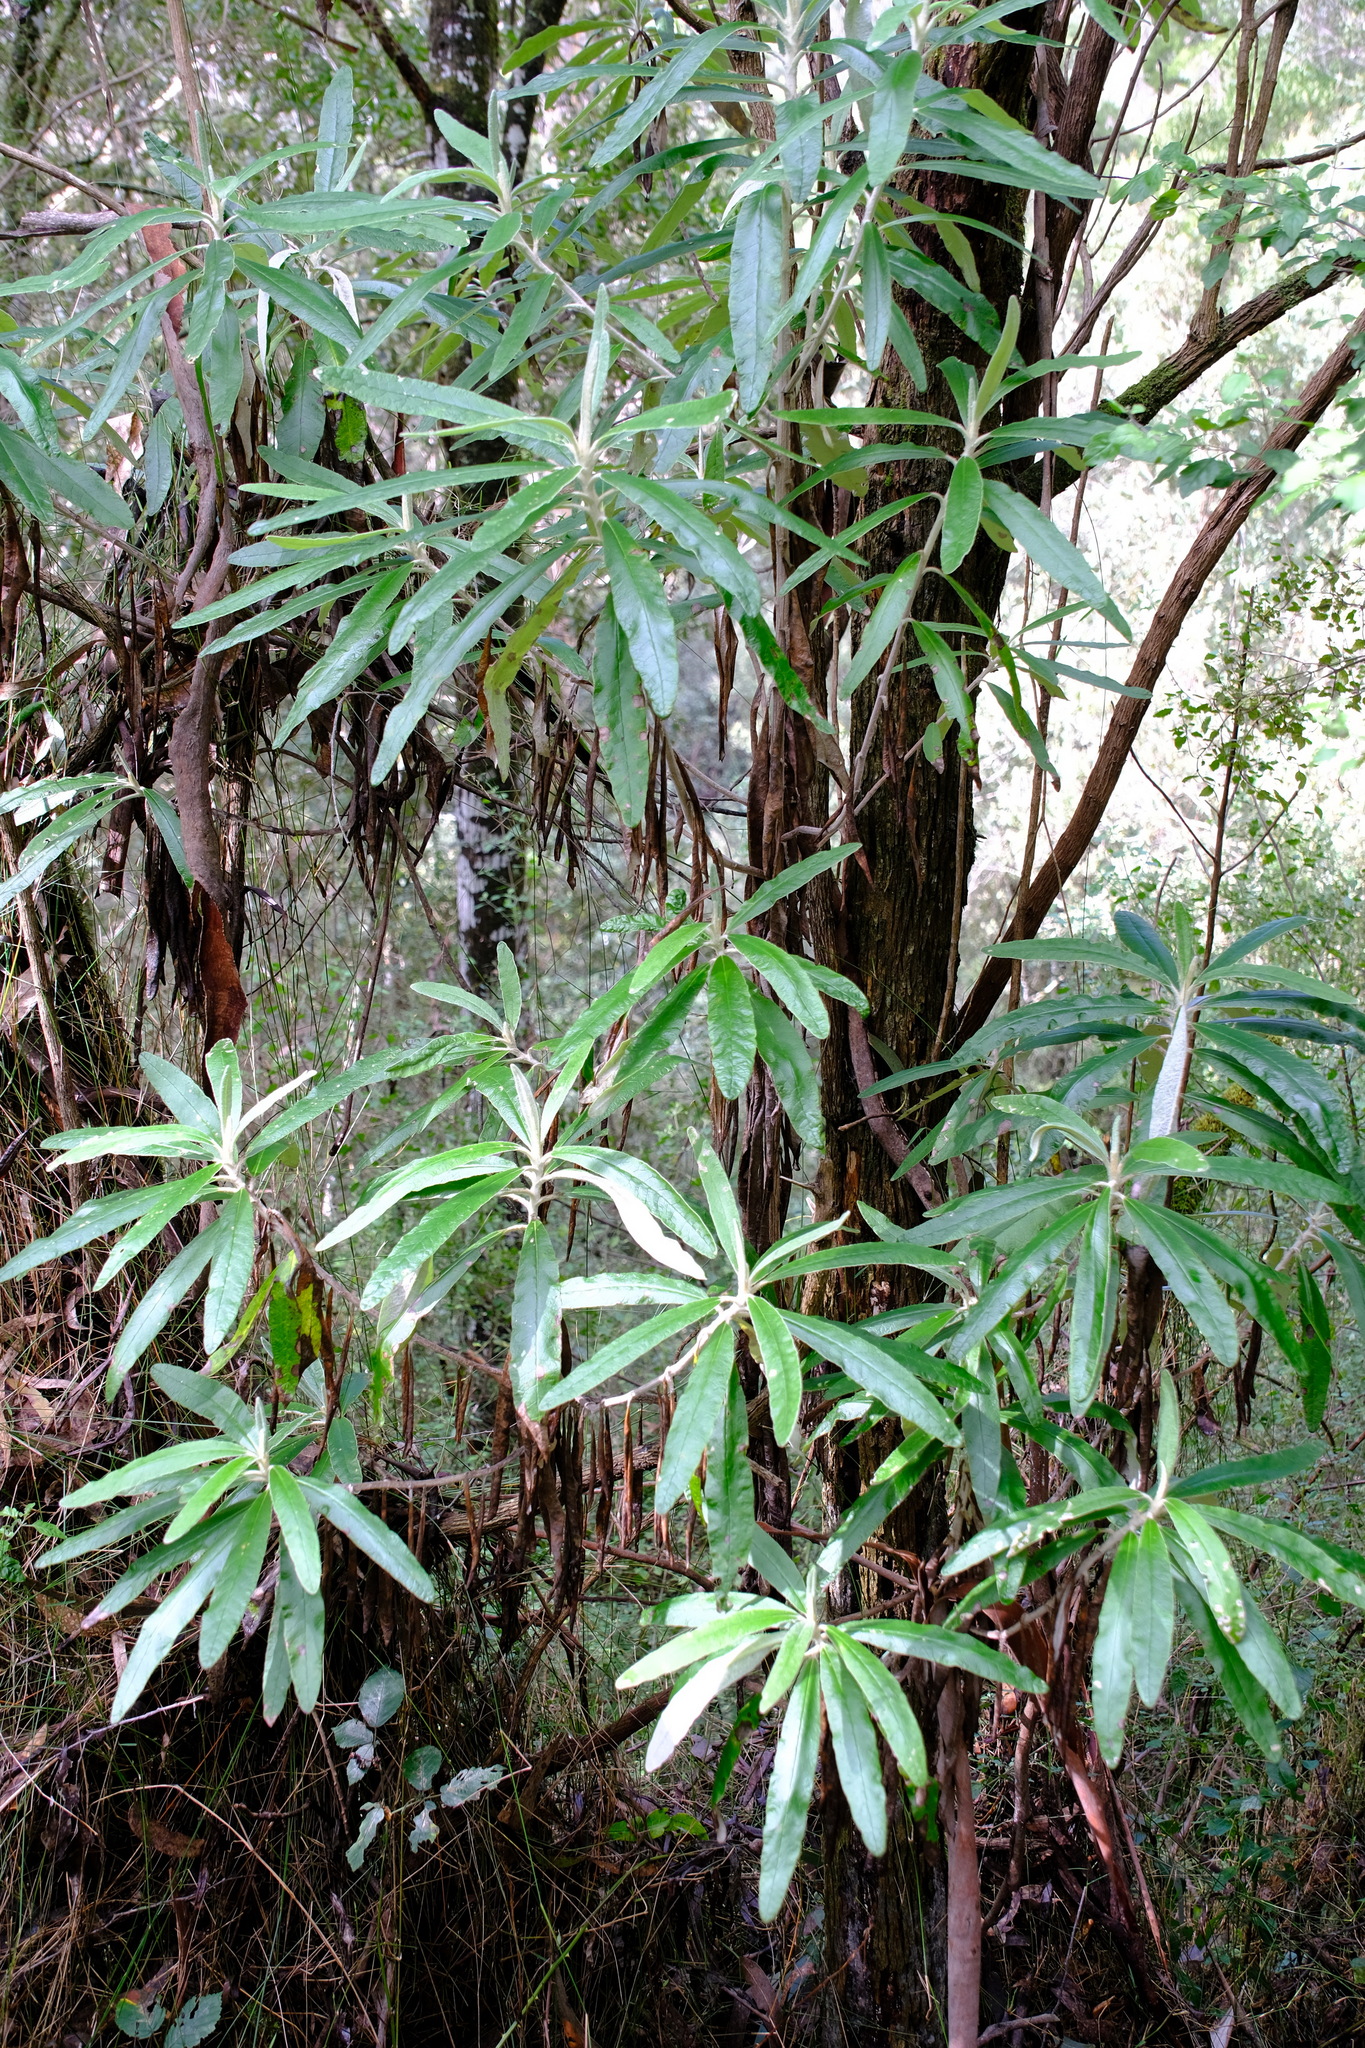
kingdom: Plantae
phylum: Tracheophyta
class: Magnoliopsida
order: Asterales
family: Asteraceae
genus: Bedfordia
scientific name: Bedfordia arborescens
